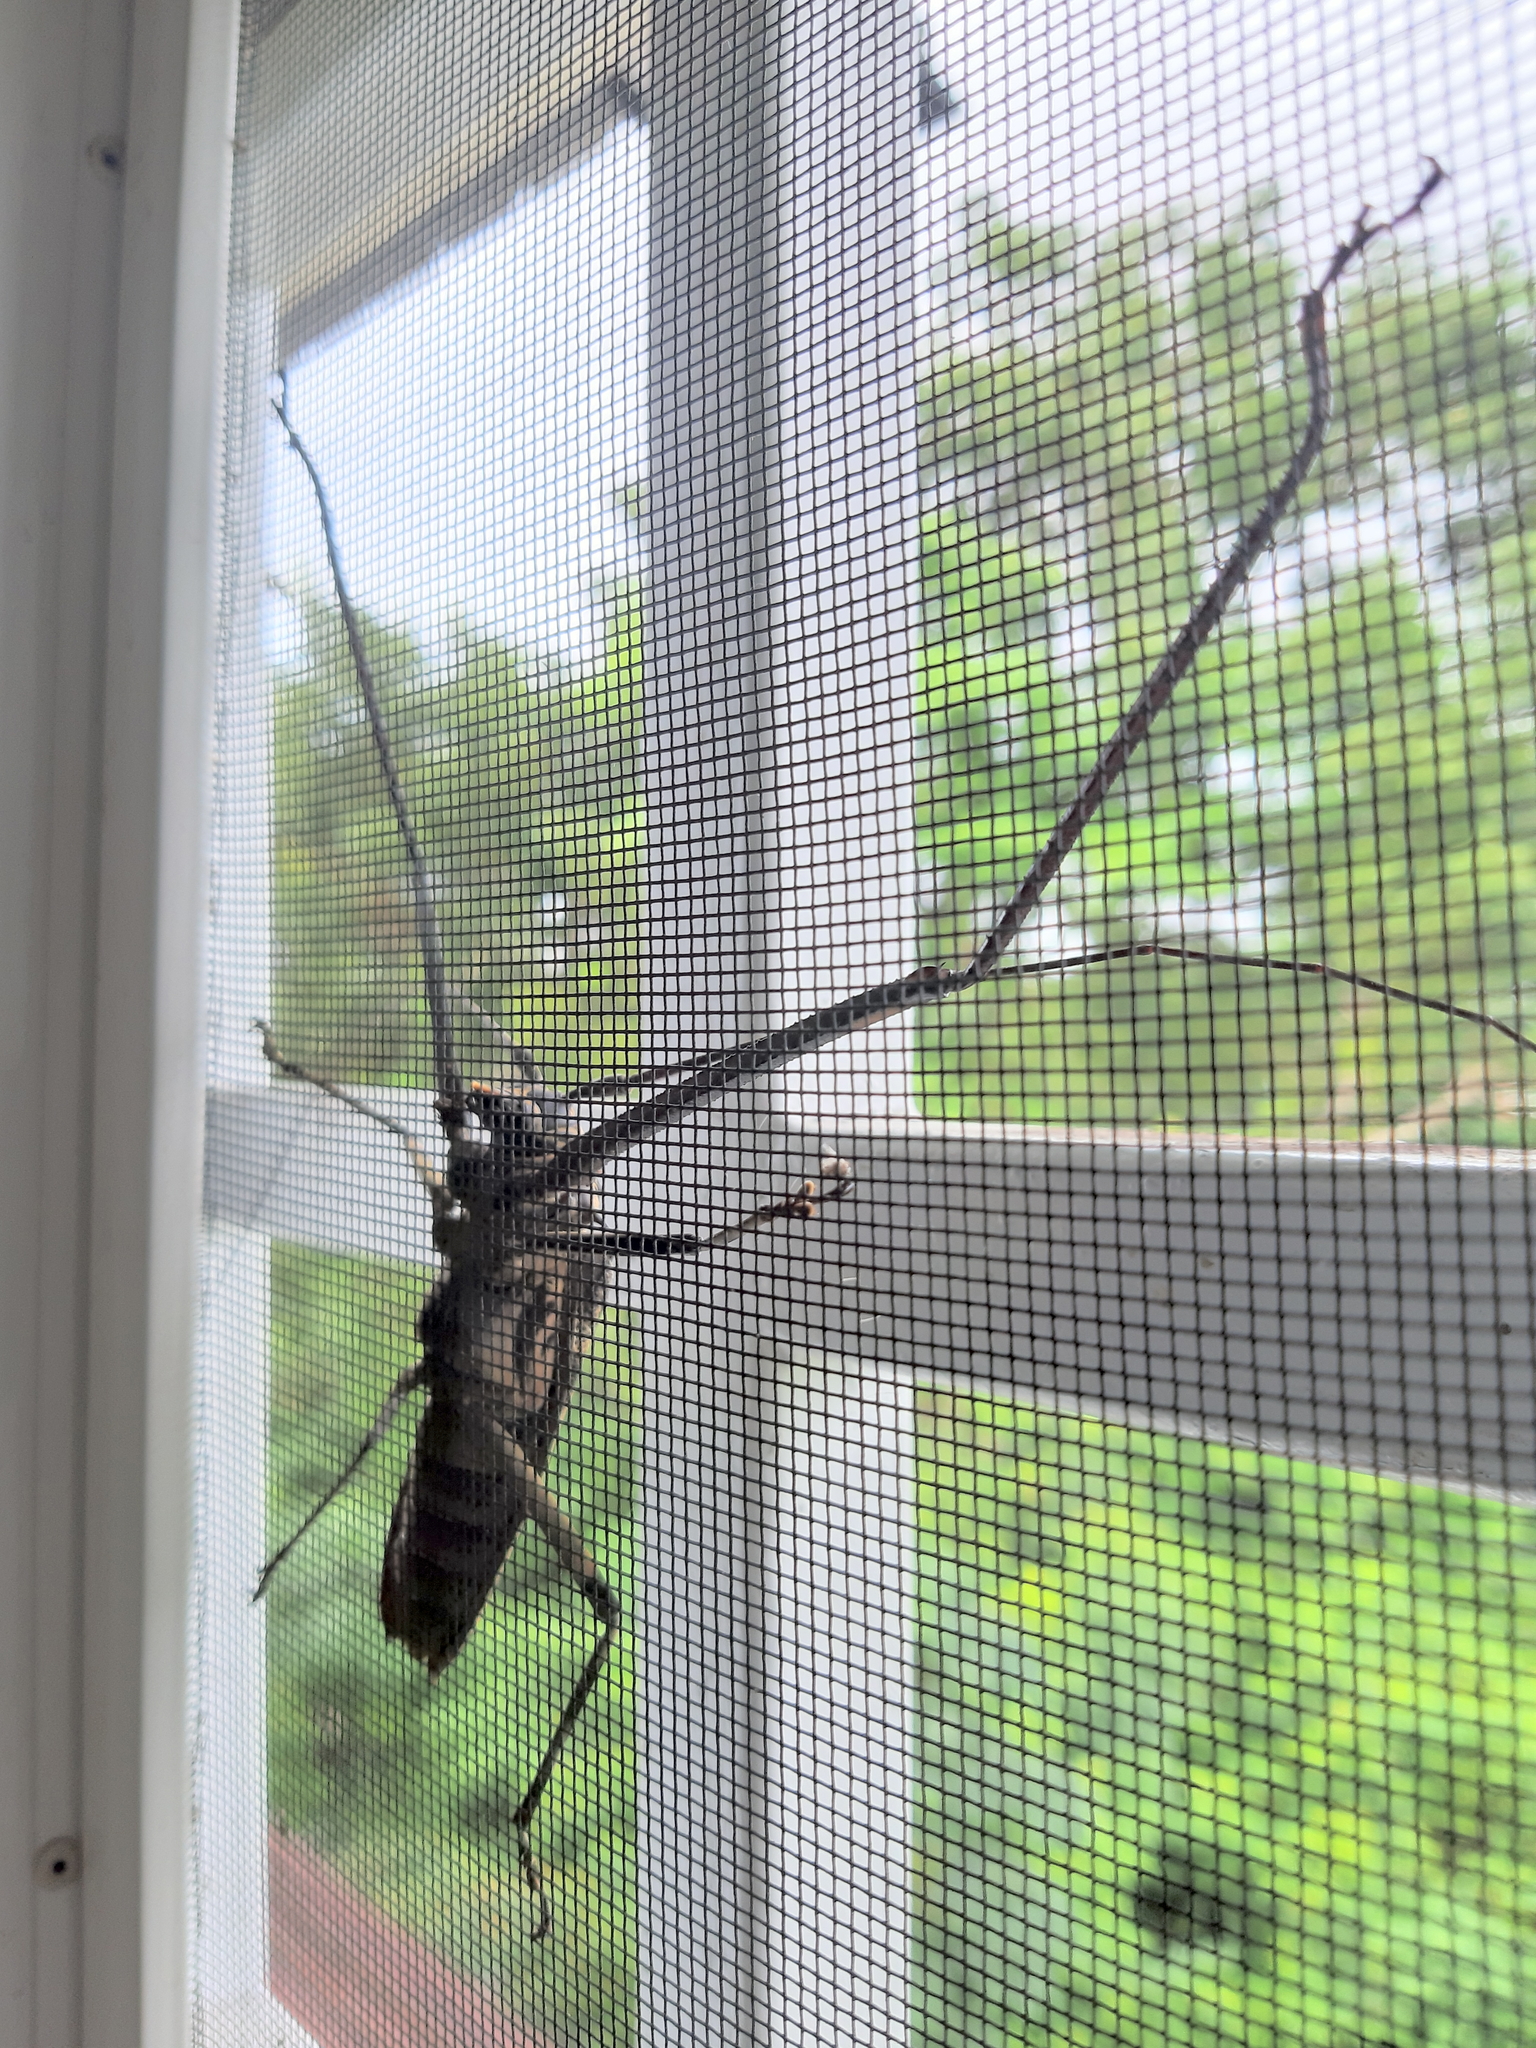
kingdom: Animalia
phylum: Arthropoda
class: Insecta
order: Coleoptera
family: Cerambycidae
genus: Acrocinus
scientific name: Acrocinus longimanus
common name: Arlequin
